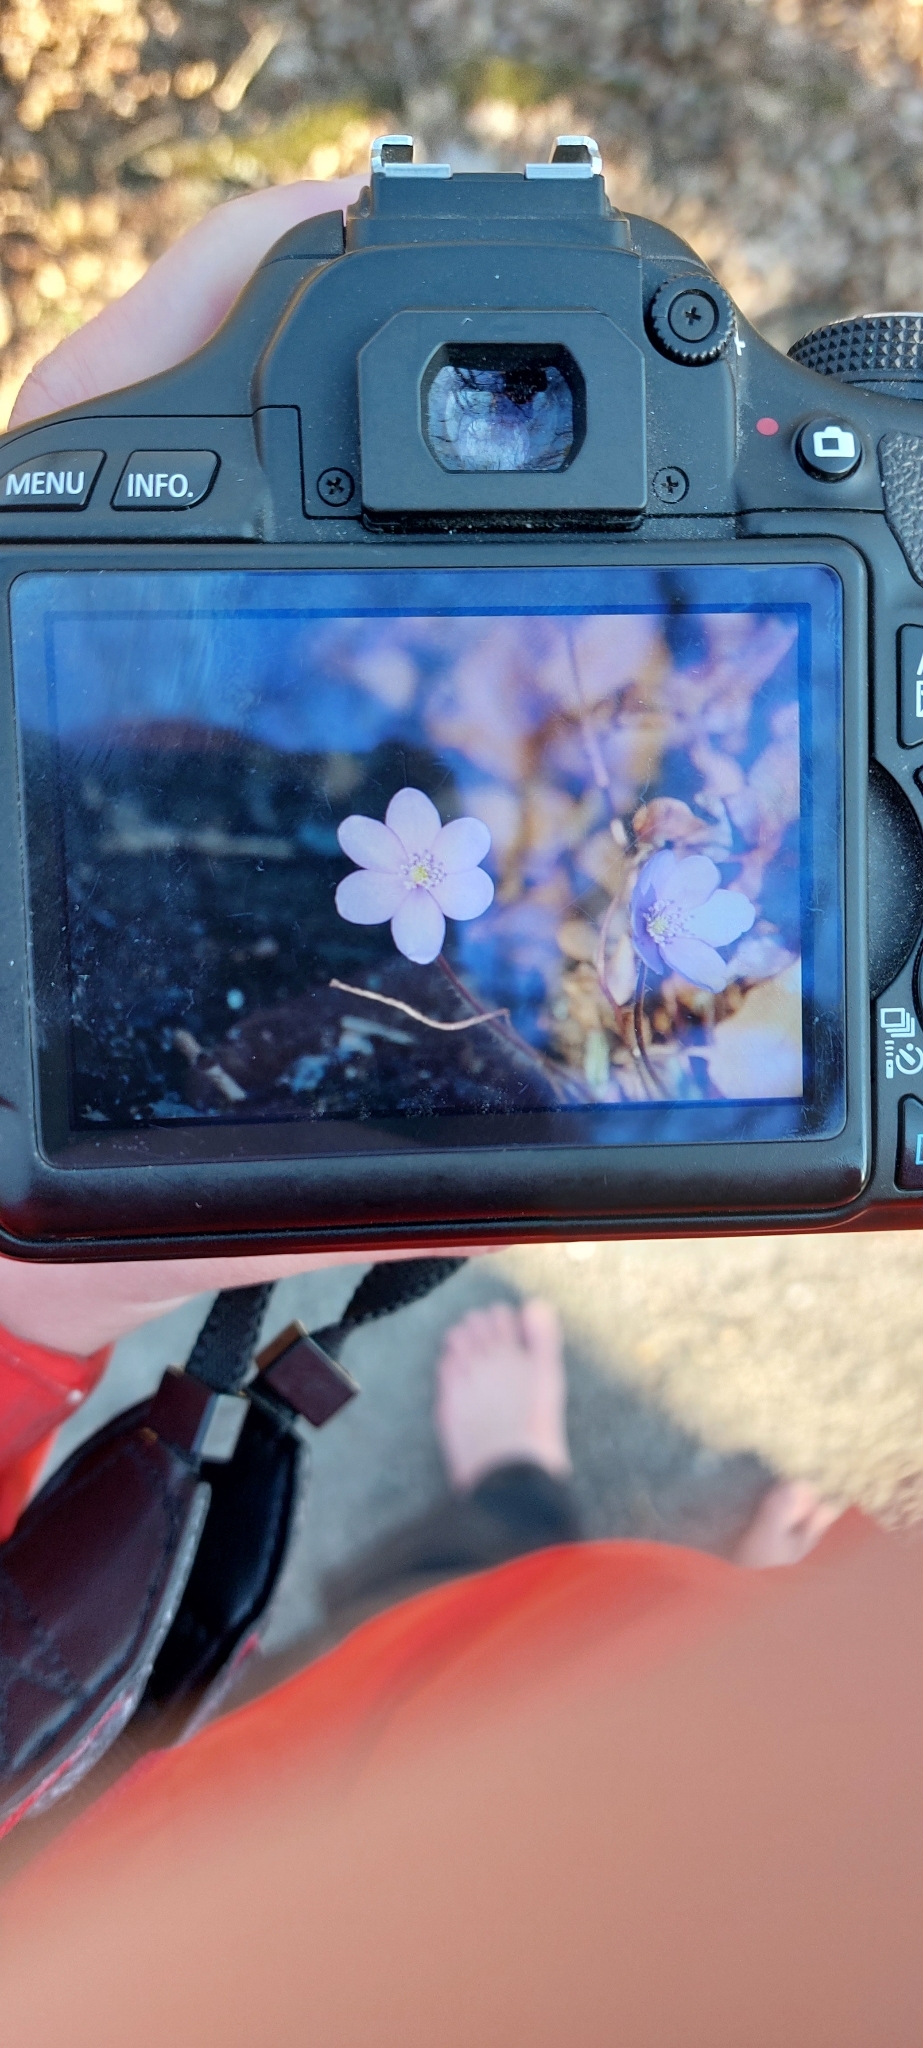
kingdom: Plantae
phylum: Tracheophyta
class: Magnoliopsida
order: Ranunculales
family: Ranunculaceae
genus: Hepatica
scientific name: Hepatica nobilis
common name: Liverleaf
